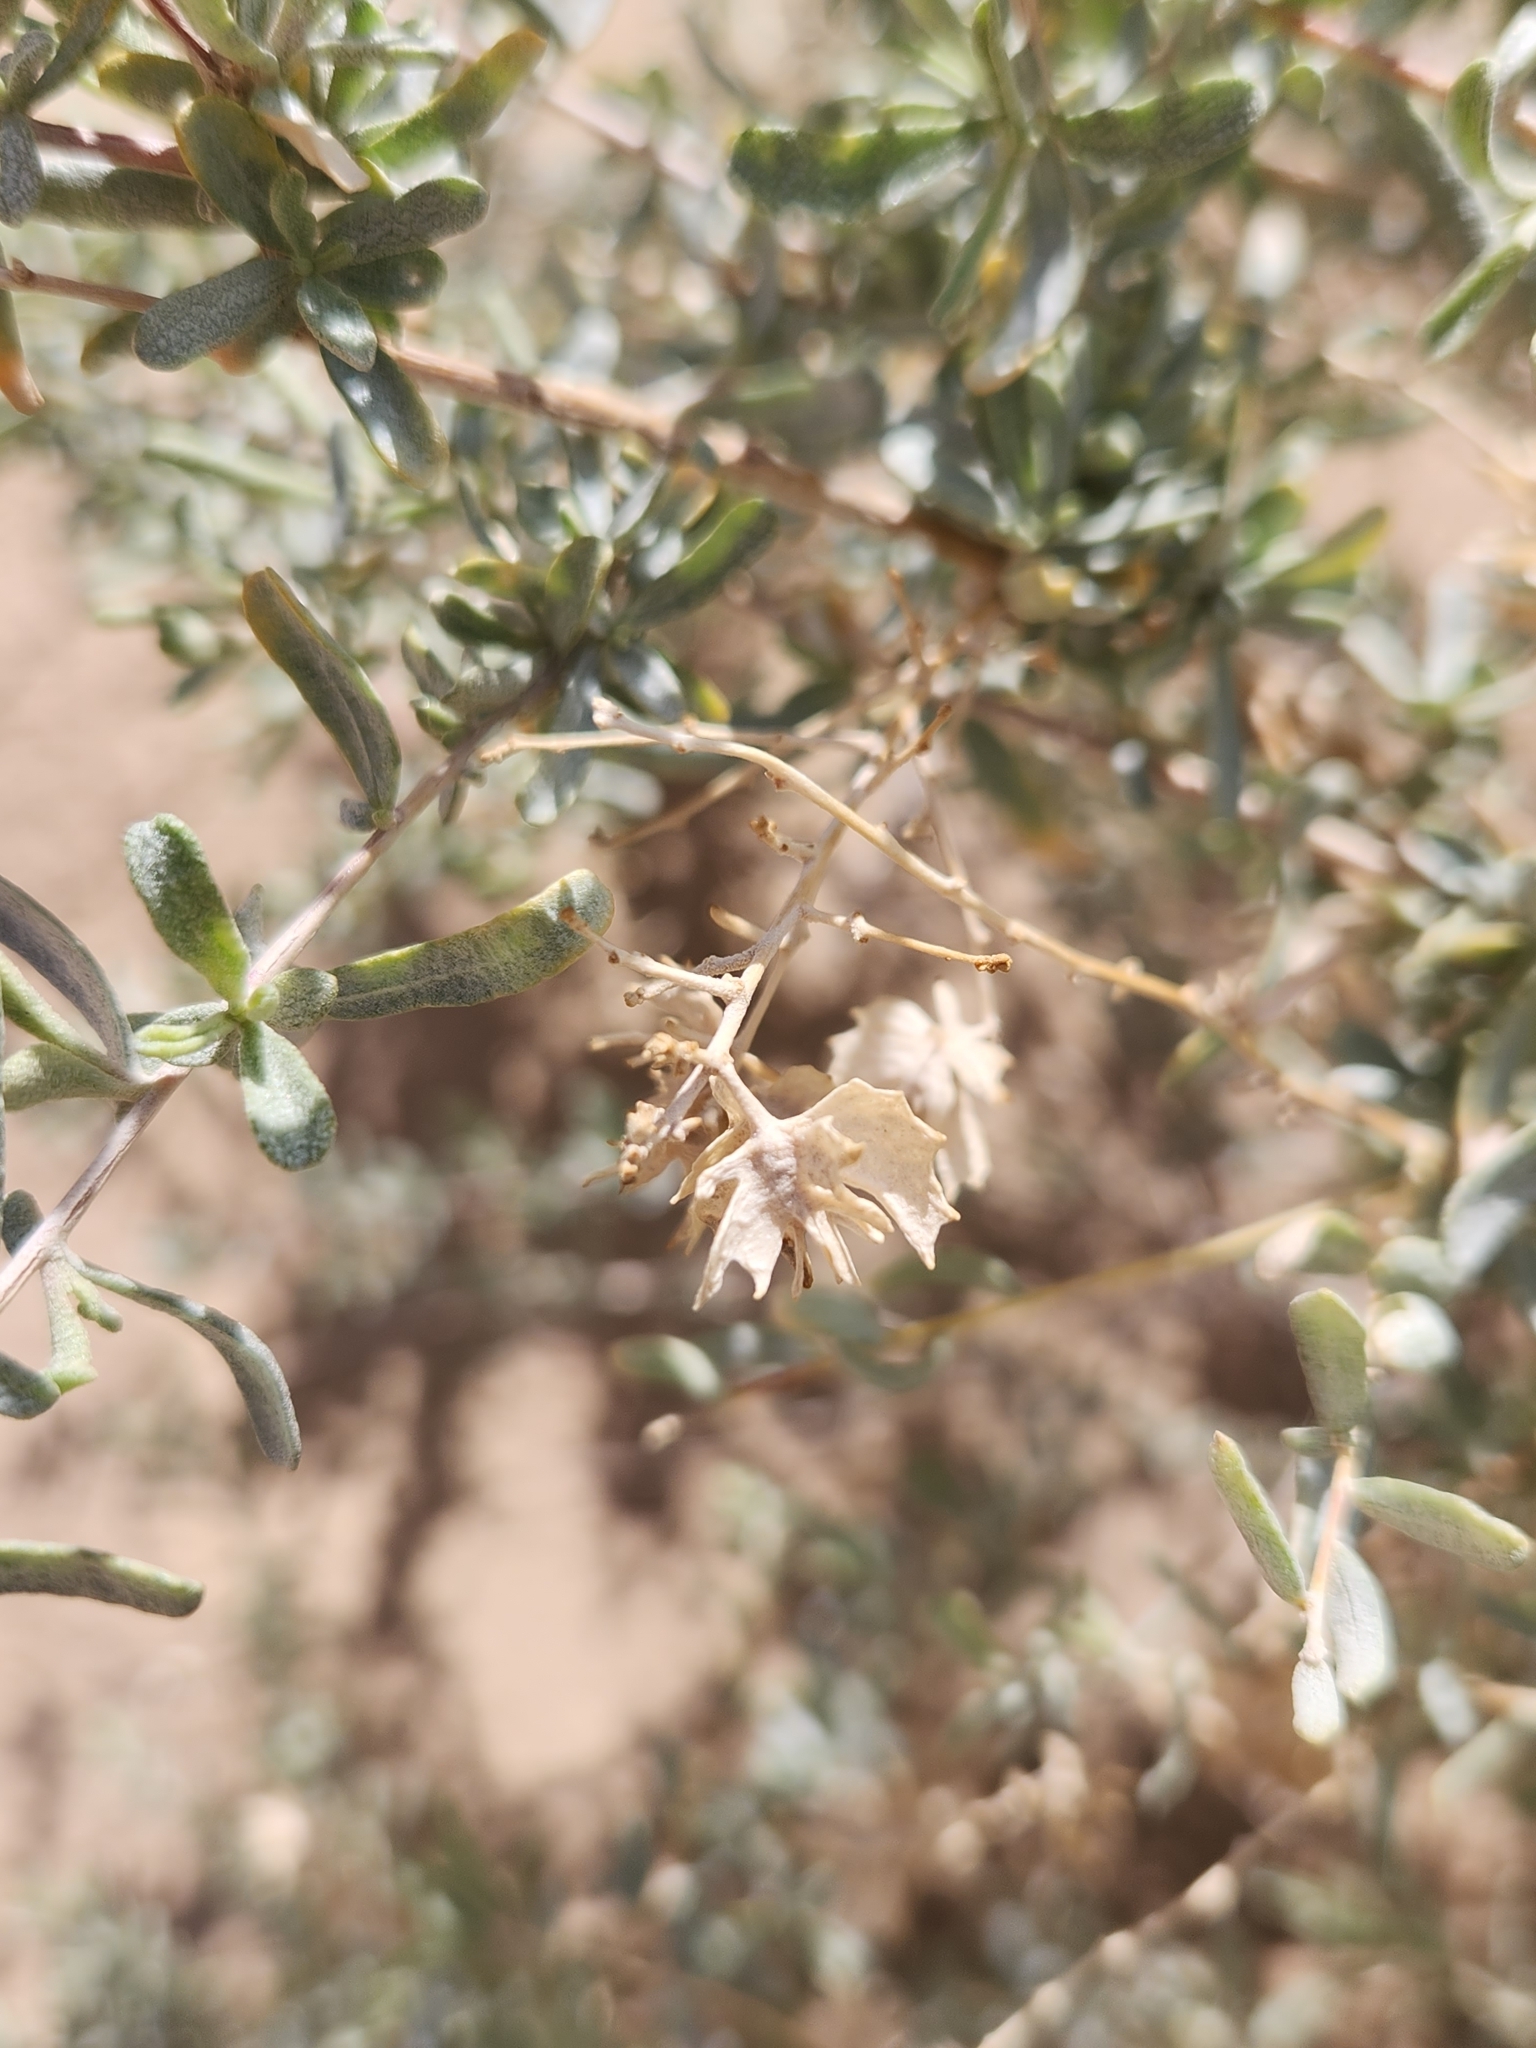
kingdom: Plantae
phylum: Tracheophyta
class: Magnoliopsida
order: Caryophyllales
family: Amaranthaceae
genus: Atriplex
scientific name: Atriplex canescens
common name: Four-wing saltbush
